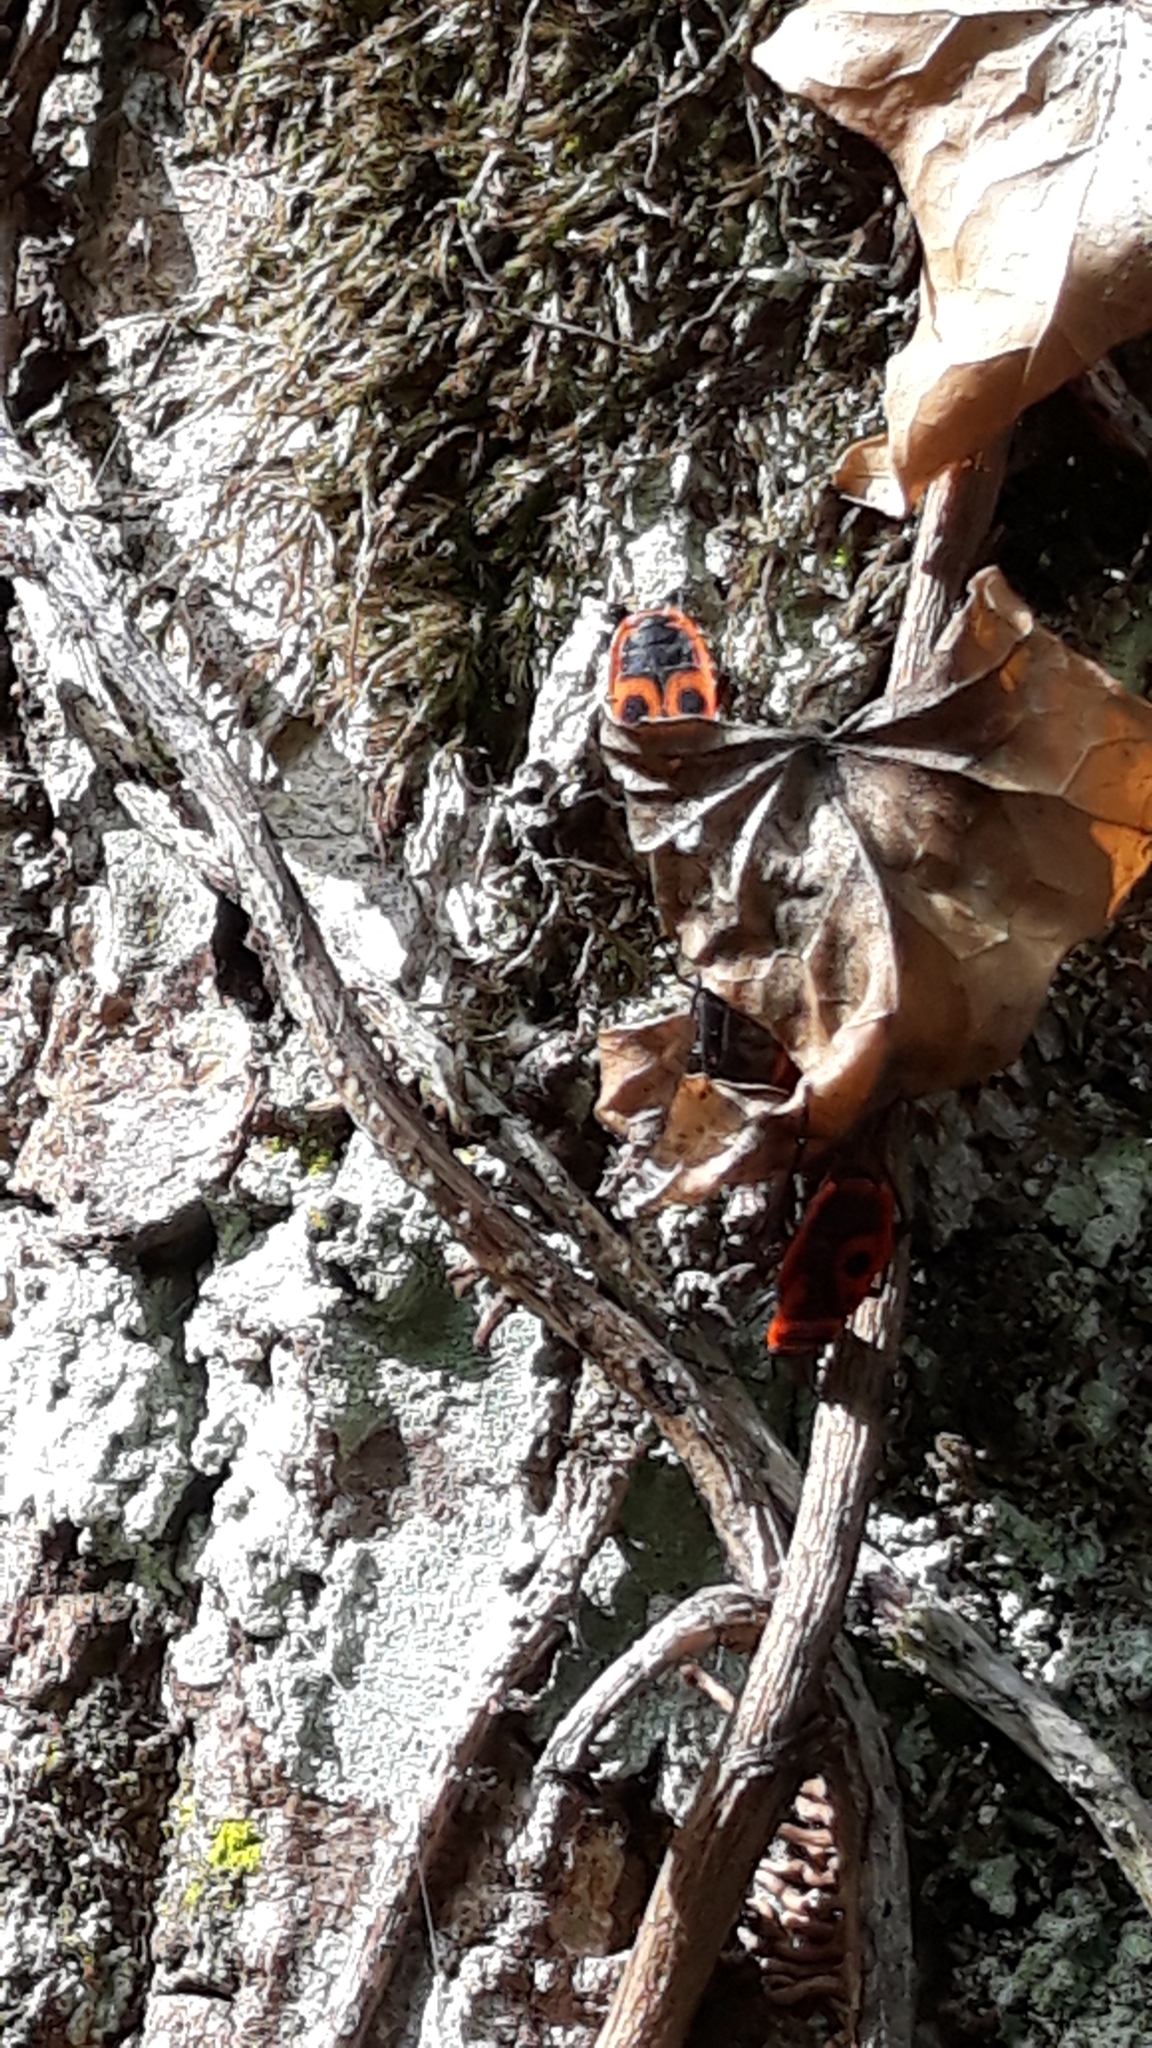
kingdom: Animalia
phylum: Arthropoda
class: Insecta
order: Hemiptera
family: Pyrrhocoridae
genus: Pyrrhocoris
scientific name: Pyrrhocoris apterus
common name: Firebug
